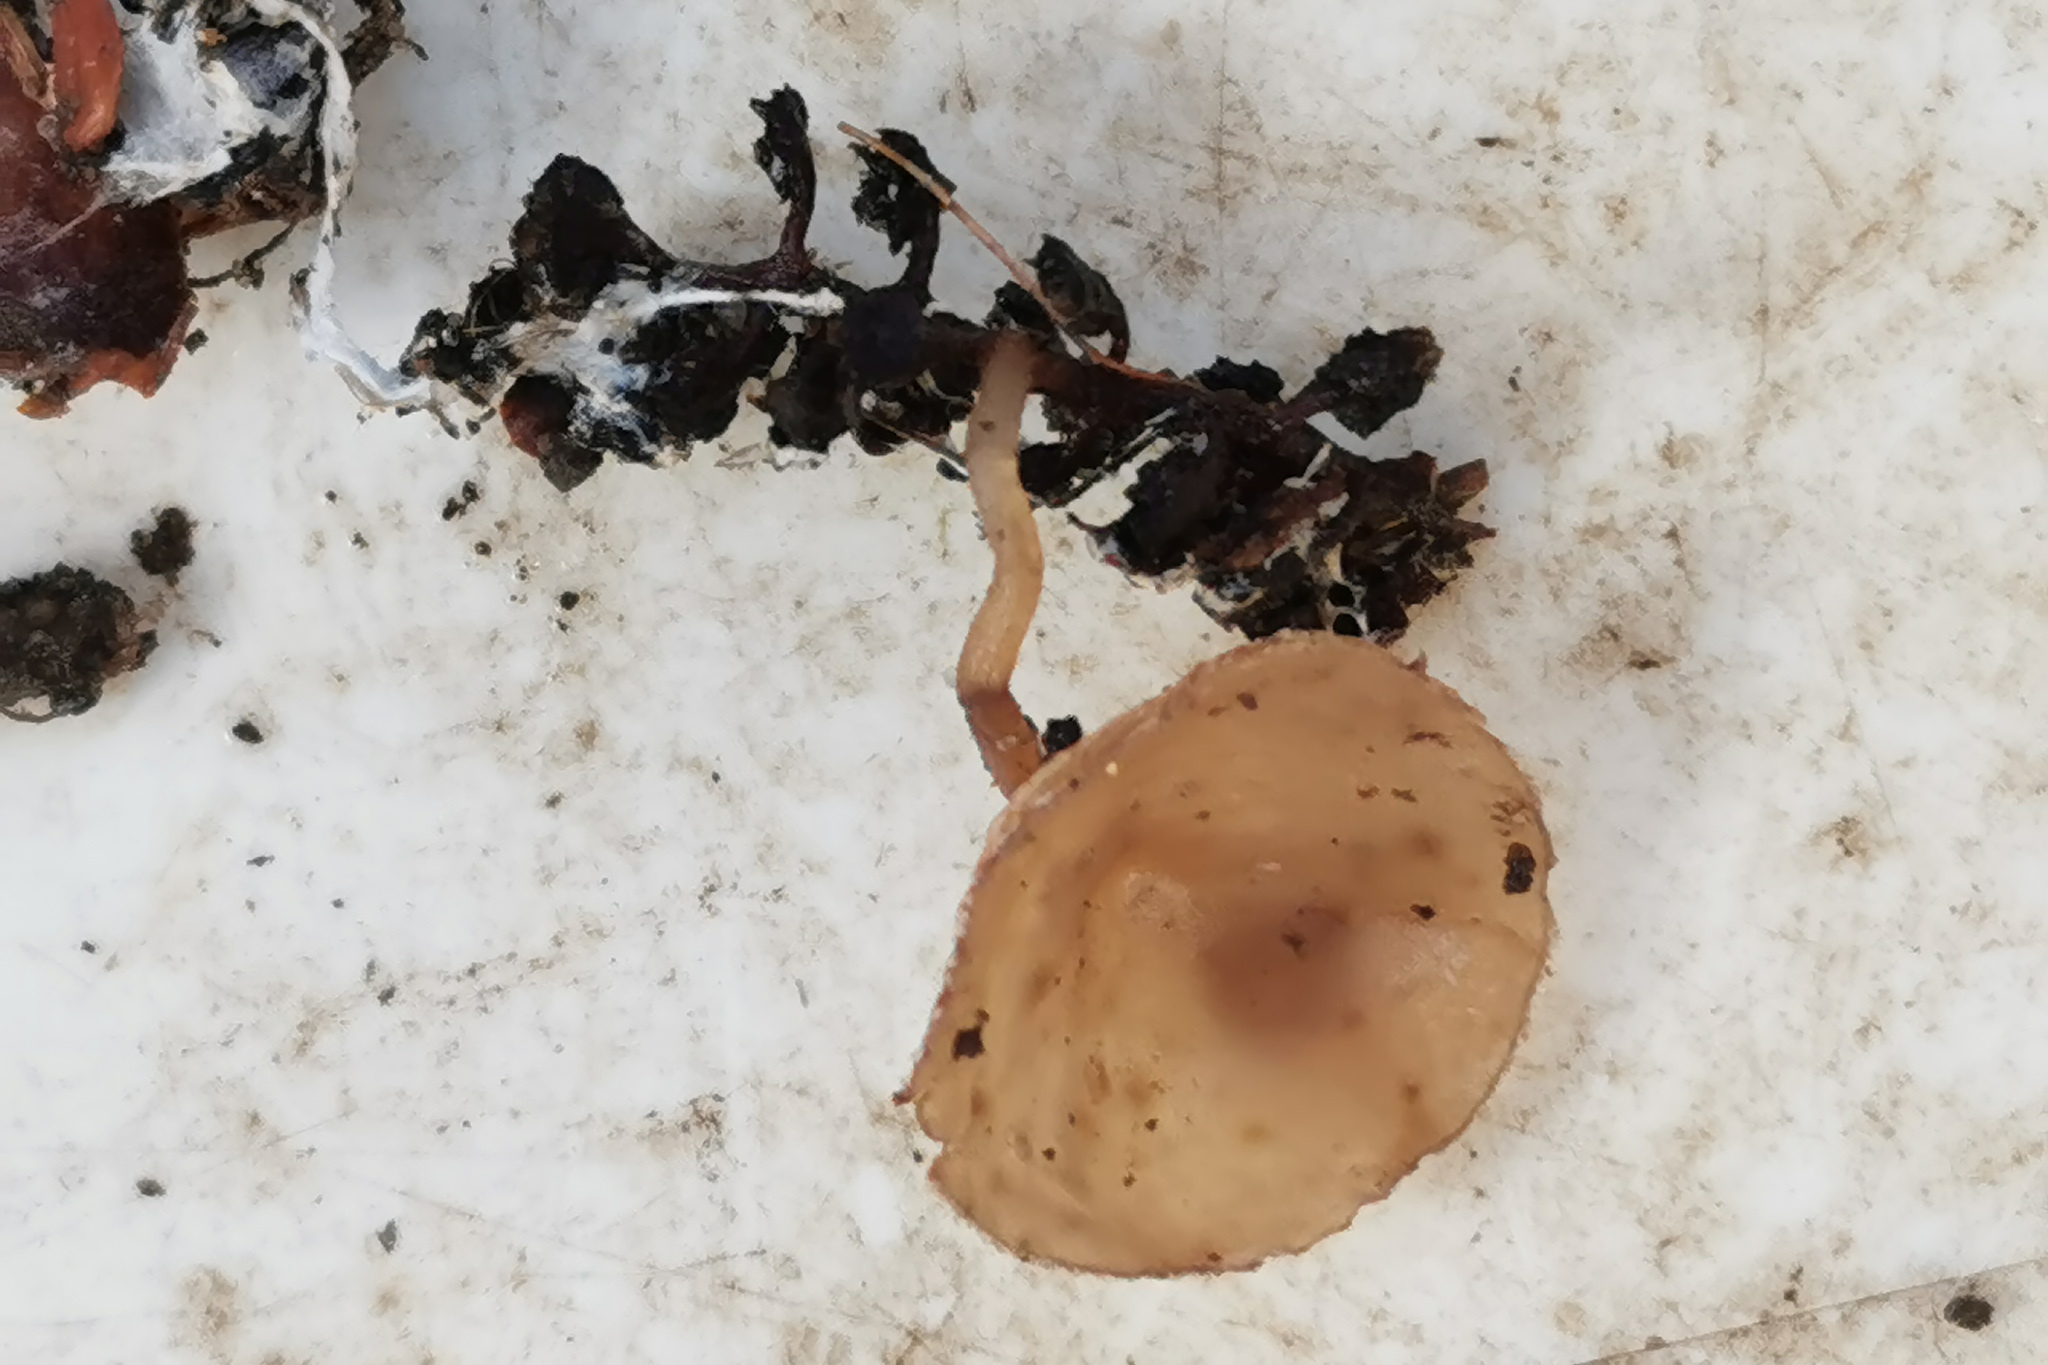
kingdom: Fungi
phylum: Ascomycota
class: Leotiomycetes
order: Helotiales
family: Sclerotiniaceae
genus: Ciboria
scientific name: Ciboria amentacea
